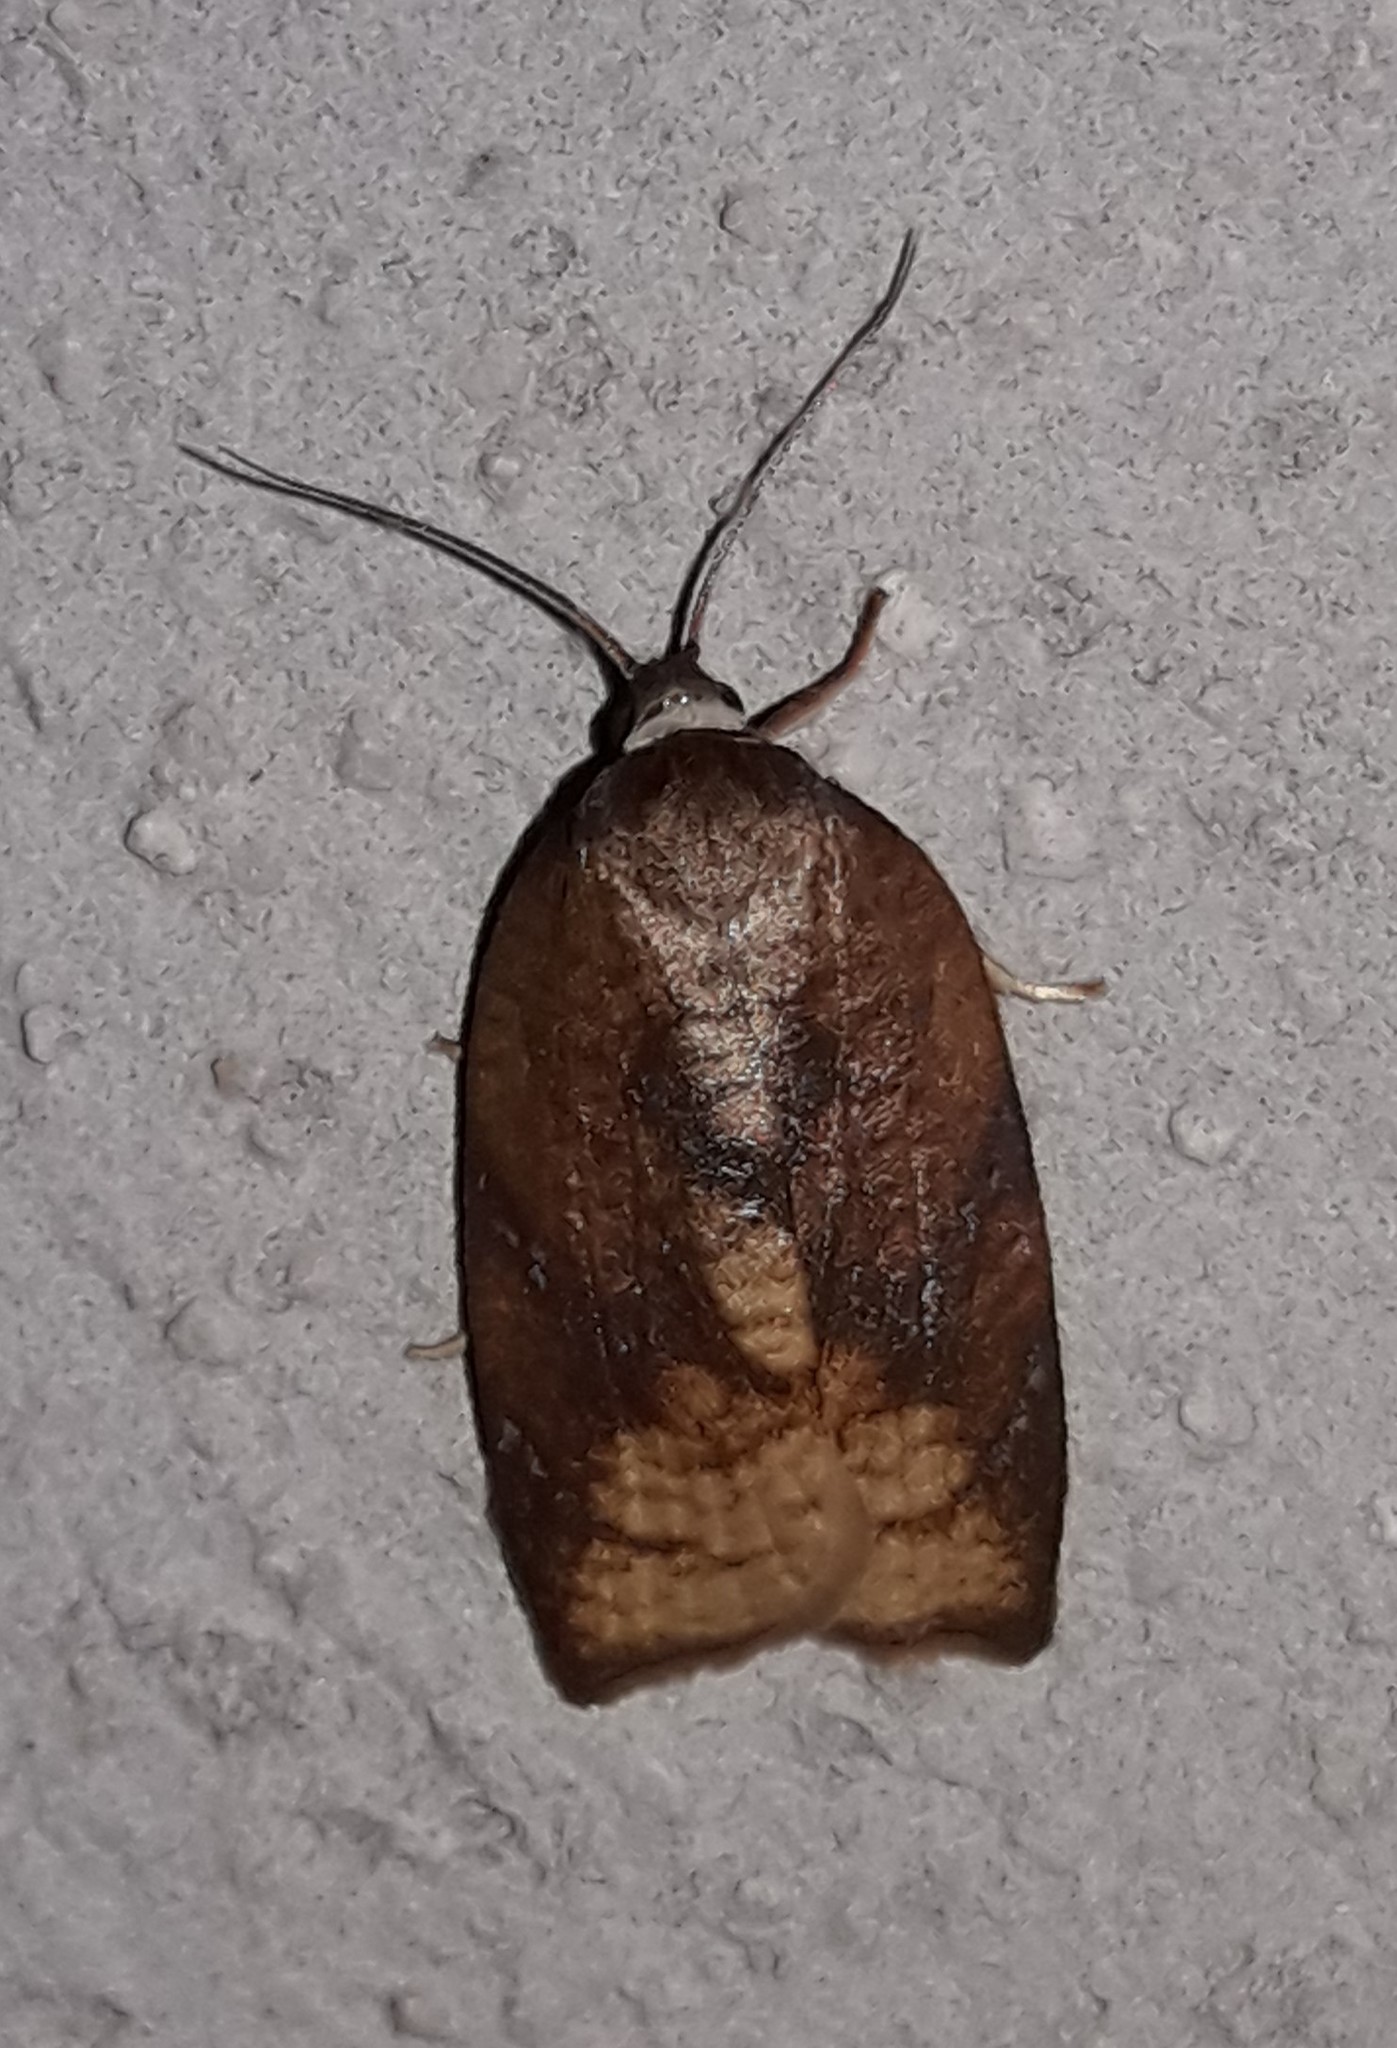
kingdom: Animalia
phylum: Arthropoda
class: Insecta
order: Lepidoptera
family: Tortricidae
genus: Amorbia
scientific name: Amorbia monteverde
